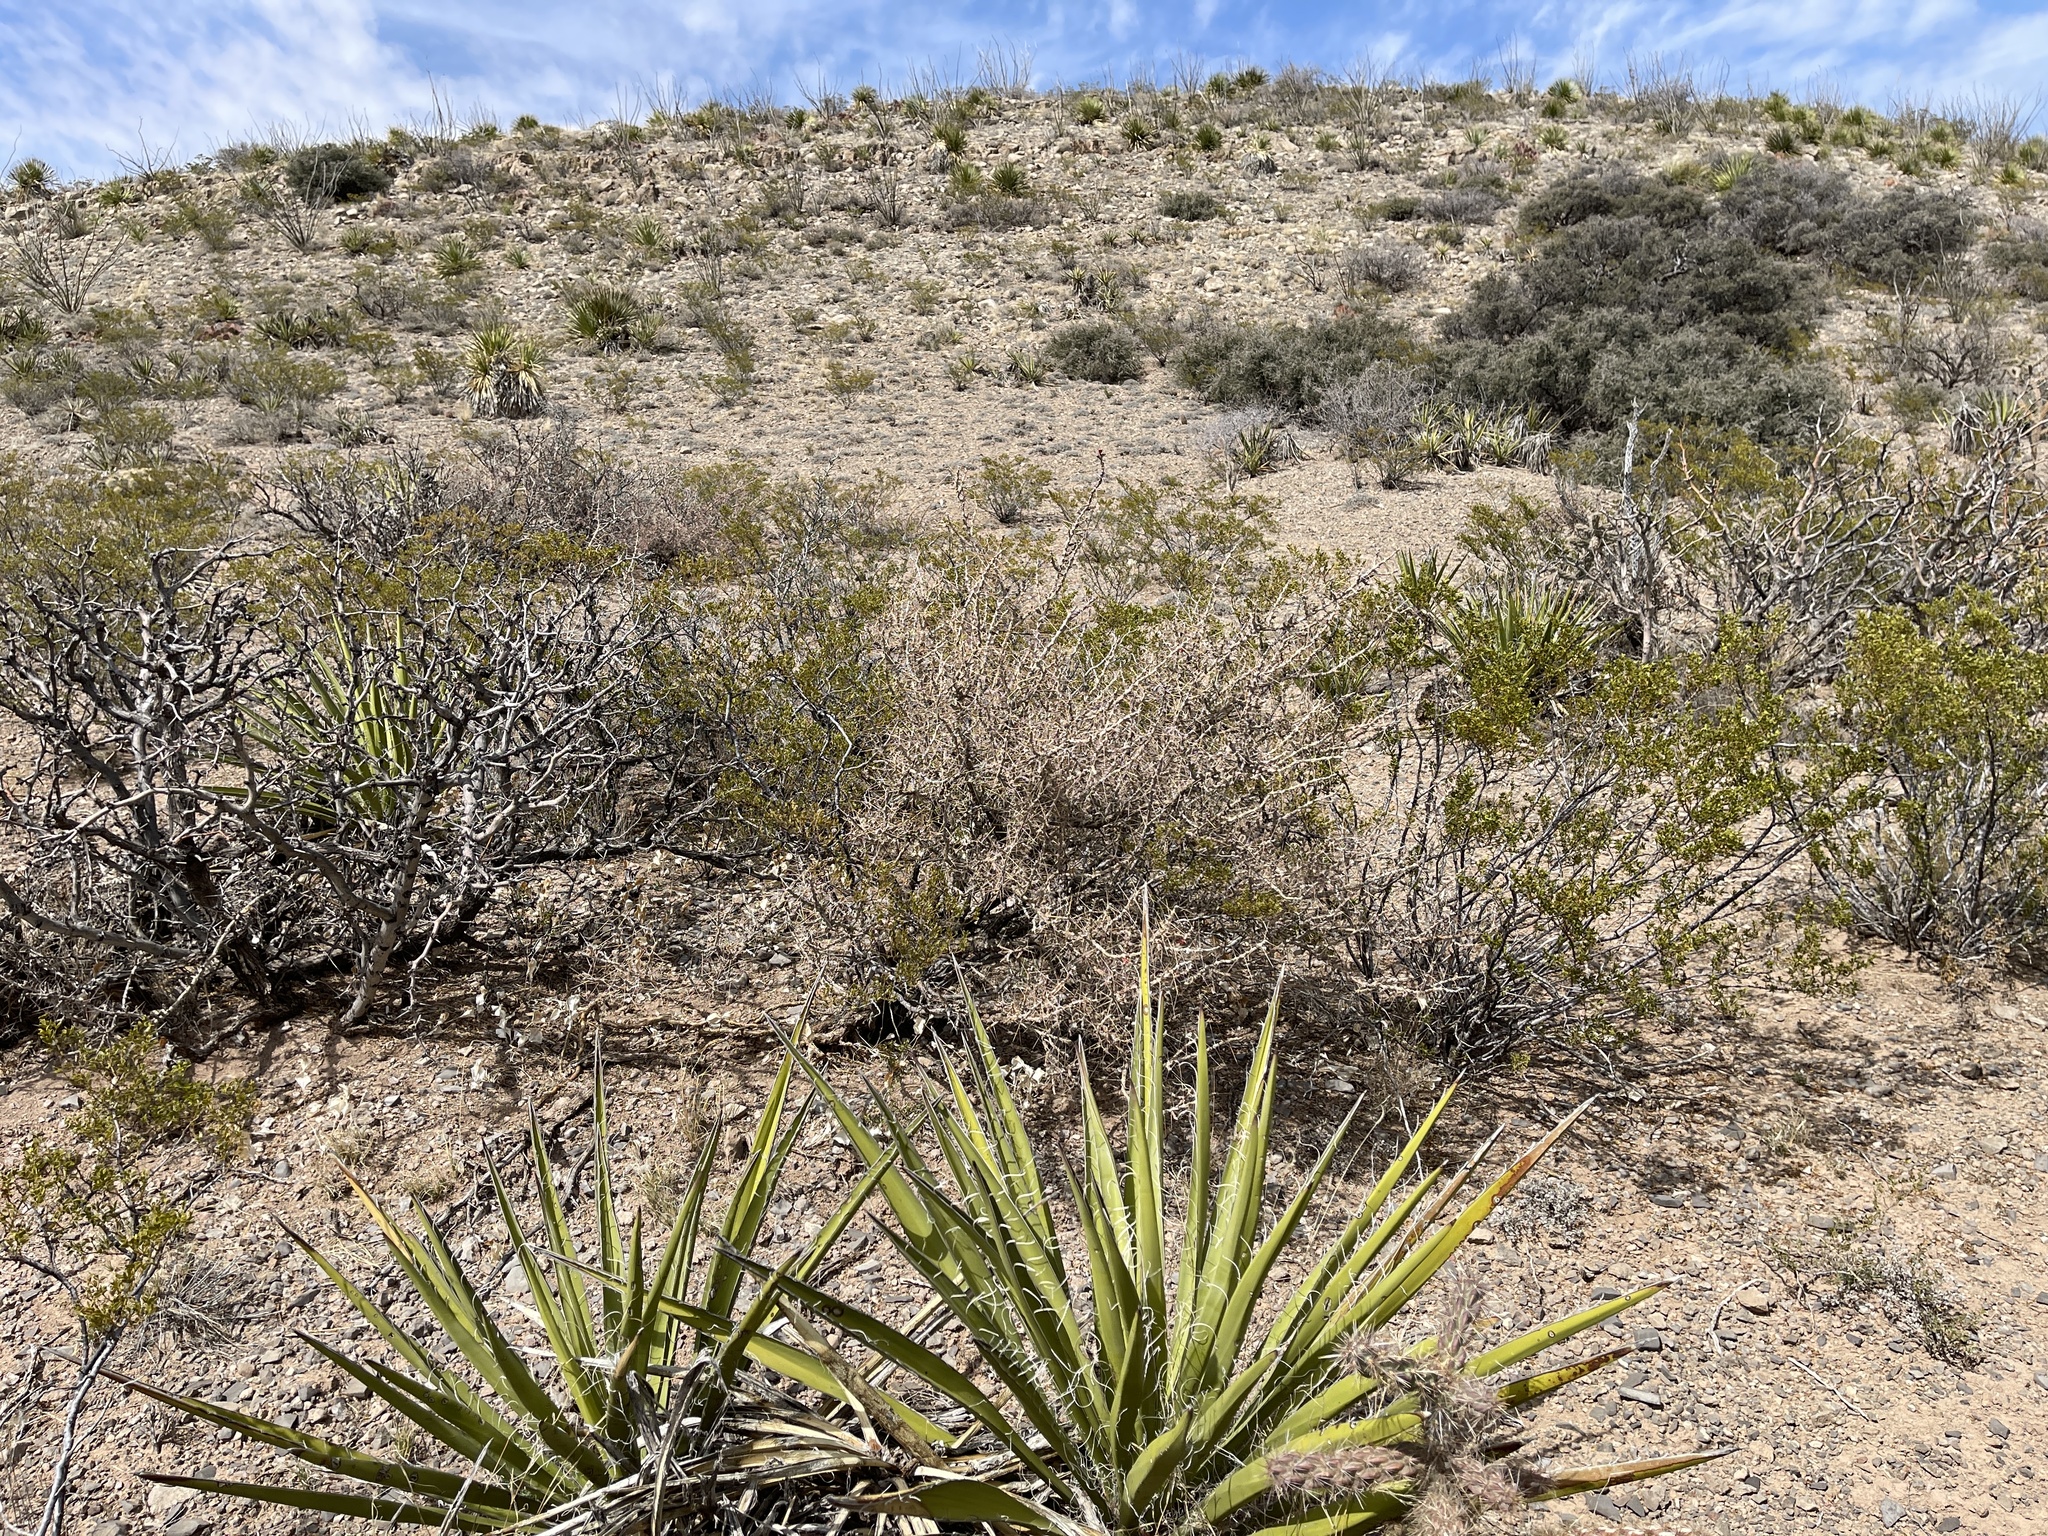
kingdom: Plantae
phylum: Tracheophyta
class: Magnoliopsida
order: Caryophyllales
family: Cactaceae
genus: Cylindropuntia
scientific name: Cylindropuntia leptocaulis
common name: Christmas cactus
